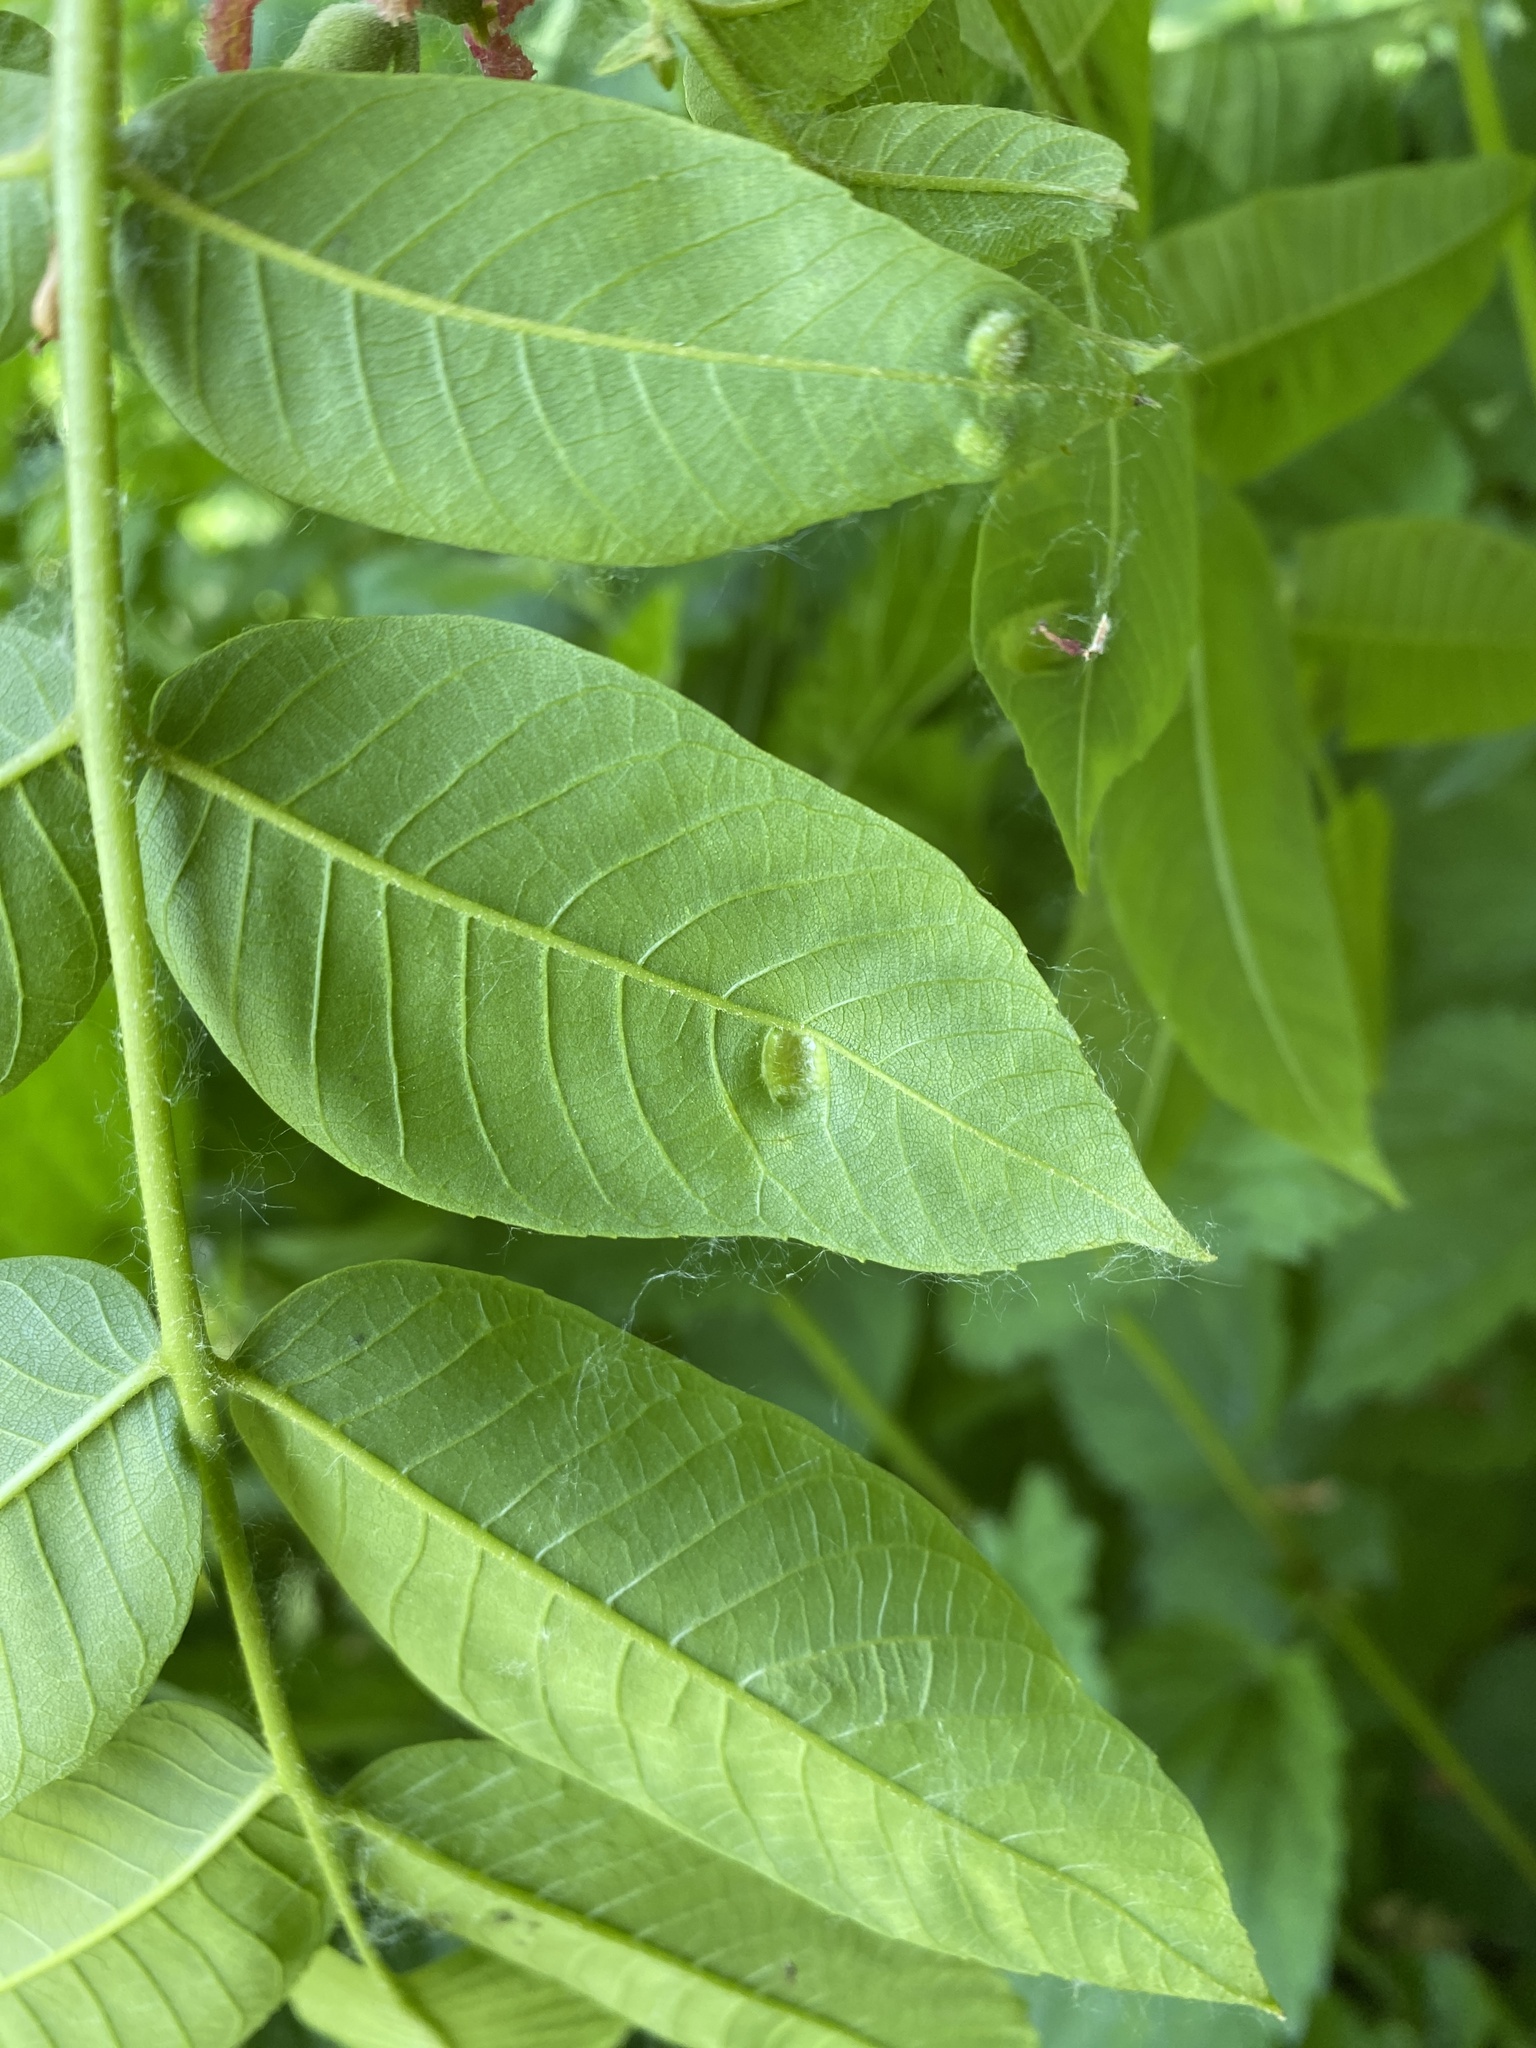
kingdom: Animalia
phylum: Arthropoda
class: Arachnida
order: Trombidiformes
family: Eriophyidae
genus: Aceria
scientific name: Aceria erinea
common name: Persian walnut erineum mite
